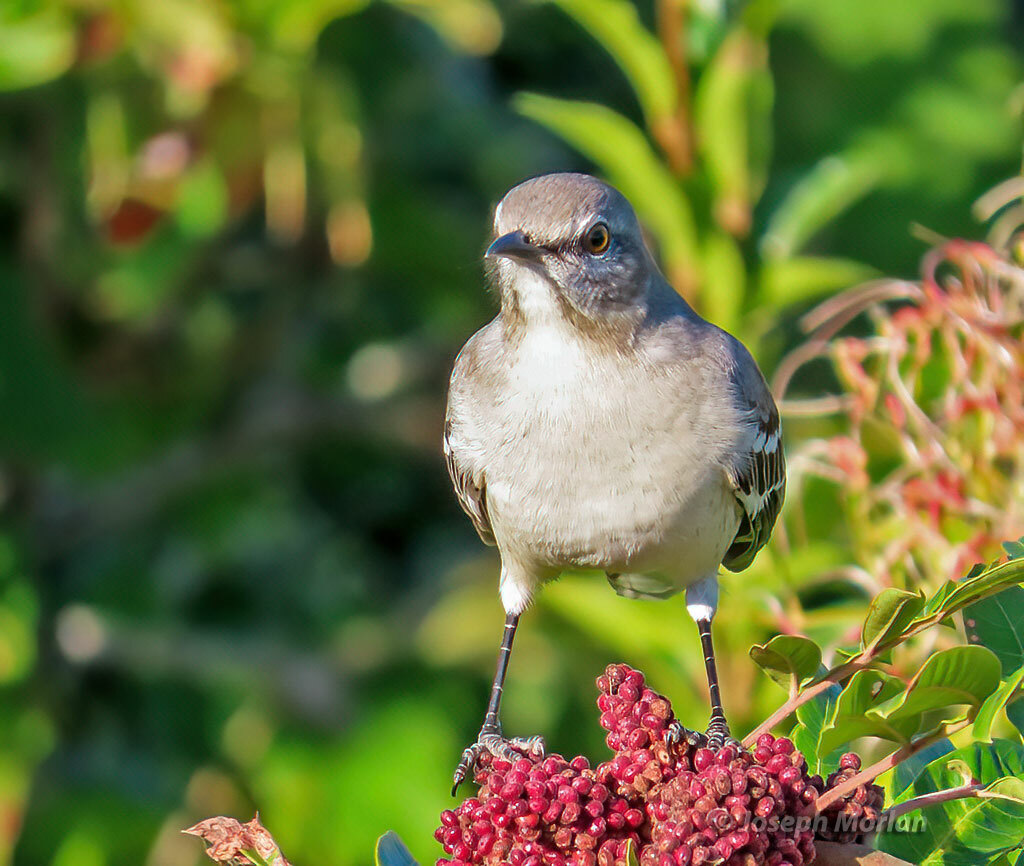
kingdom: Animalia
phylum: Chordata
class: Aves
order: Passeriformes
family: Mimidae
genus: Mimus
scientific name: Mimus polyglottos
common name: Northern mockingbird
